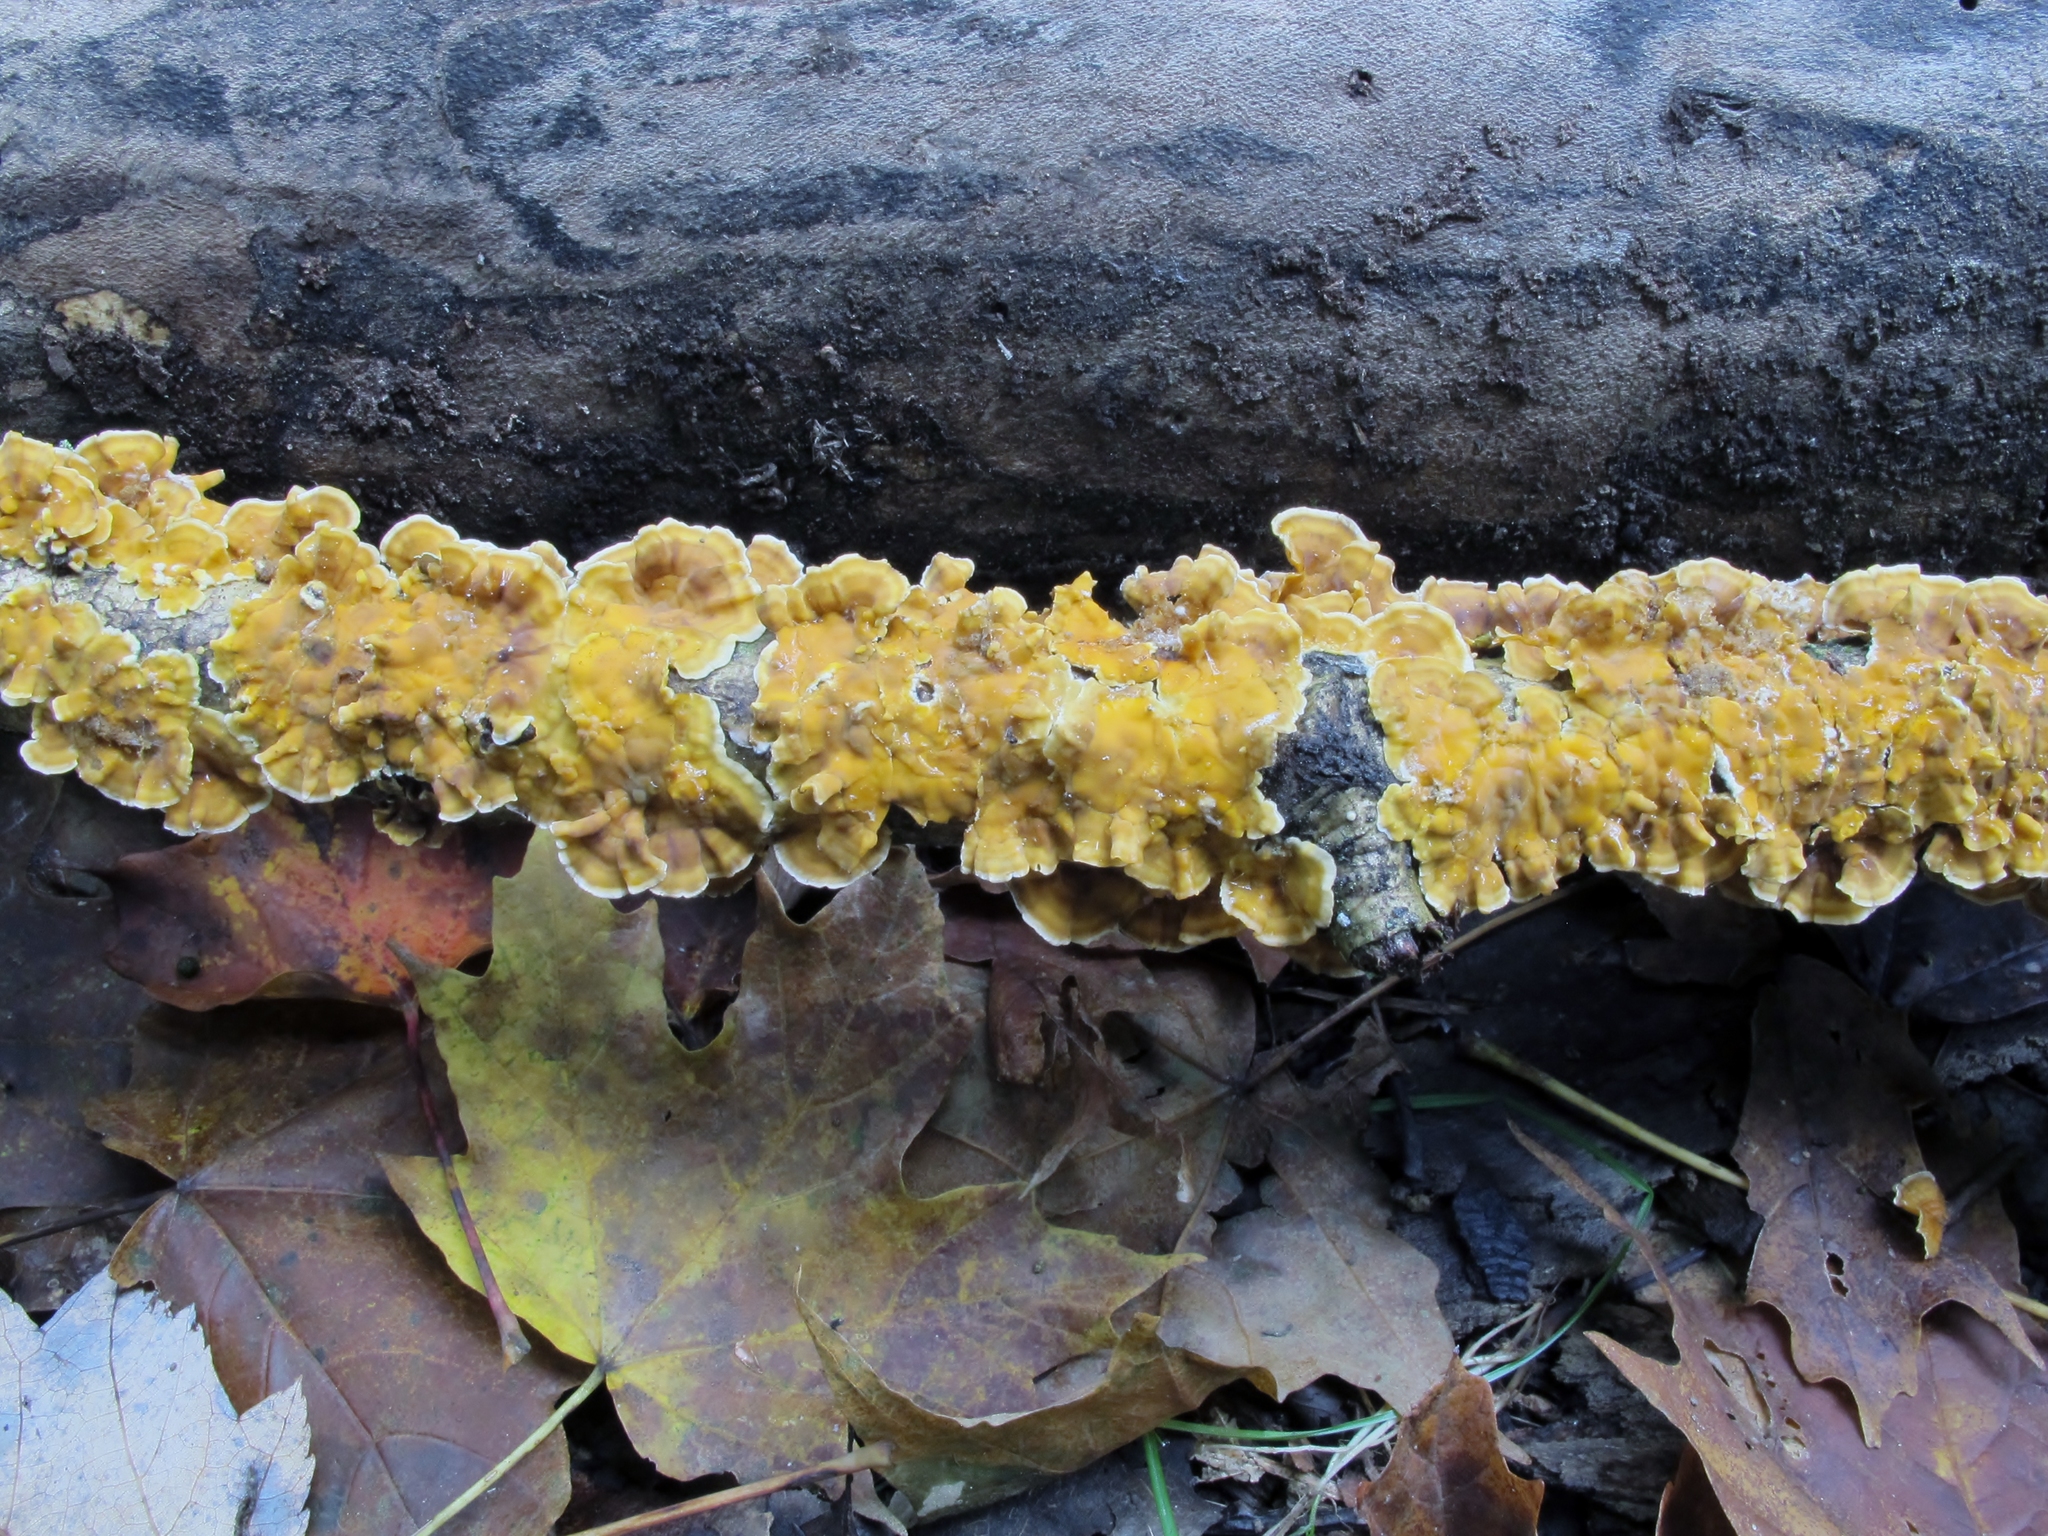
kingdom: Fungi
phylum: Basidiomycota
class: Agaricomycetes
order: Russulales
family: Stereaceae
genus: Stereum
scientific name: Stereum complicatum
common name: Crowded parchment
